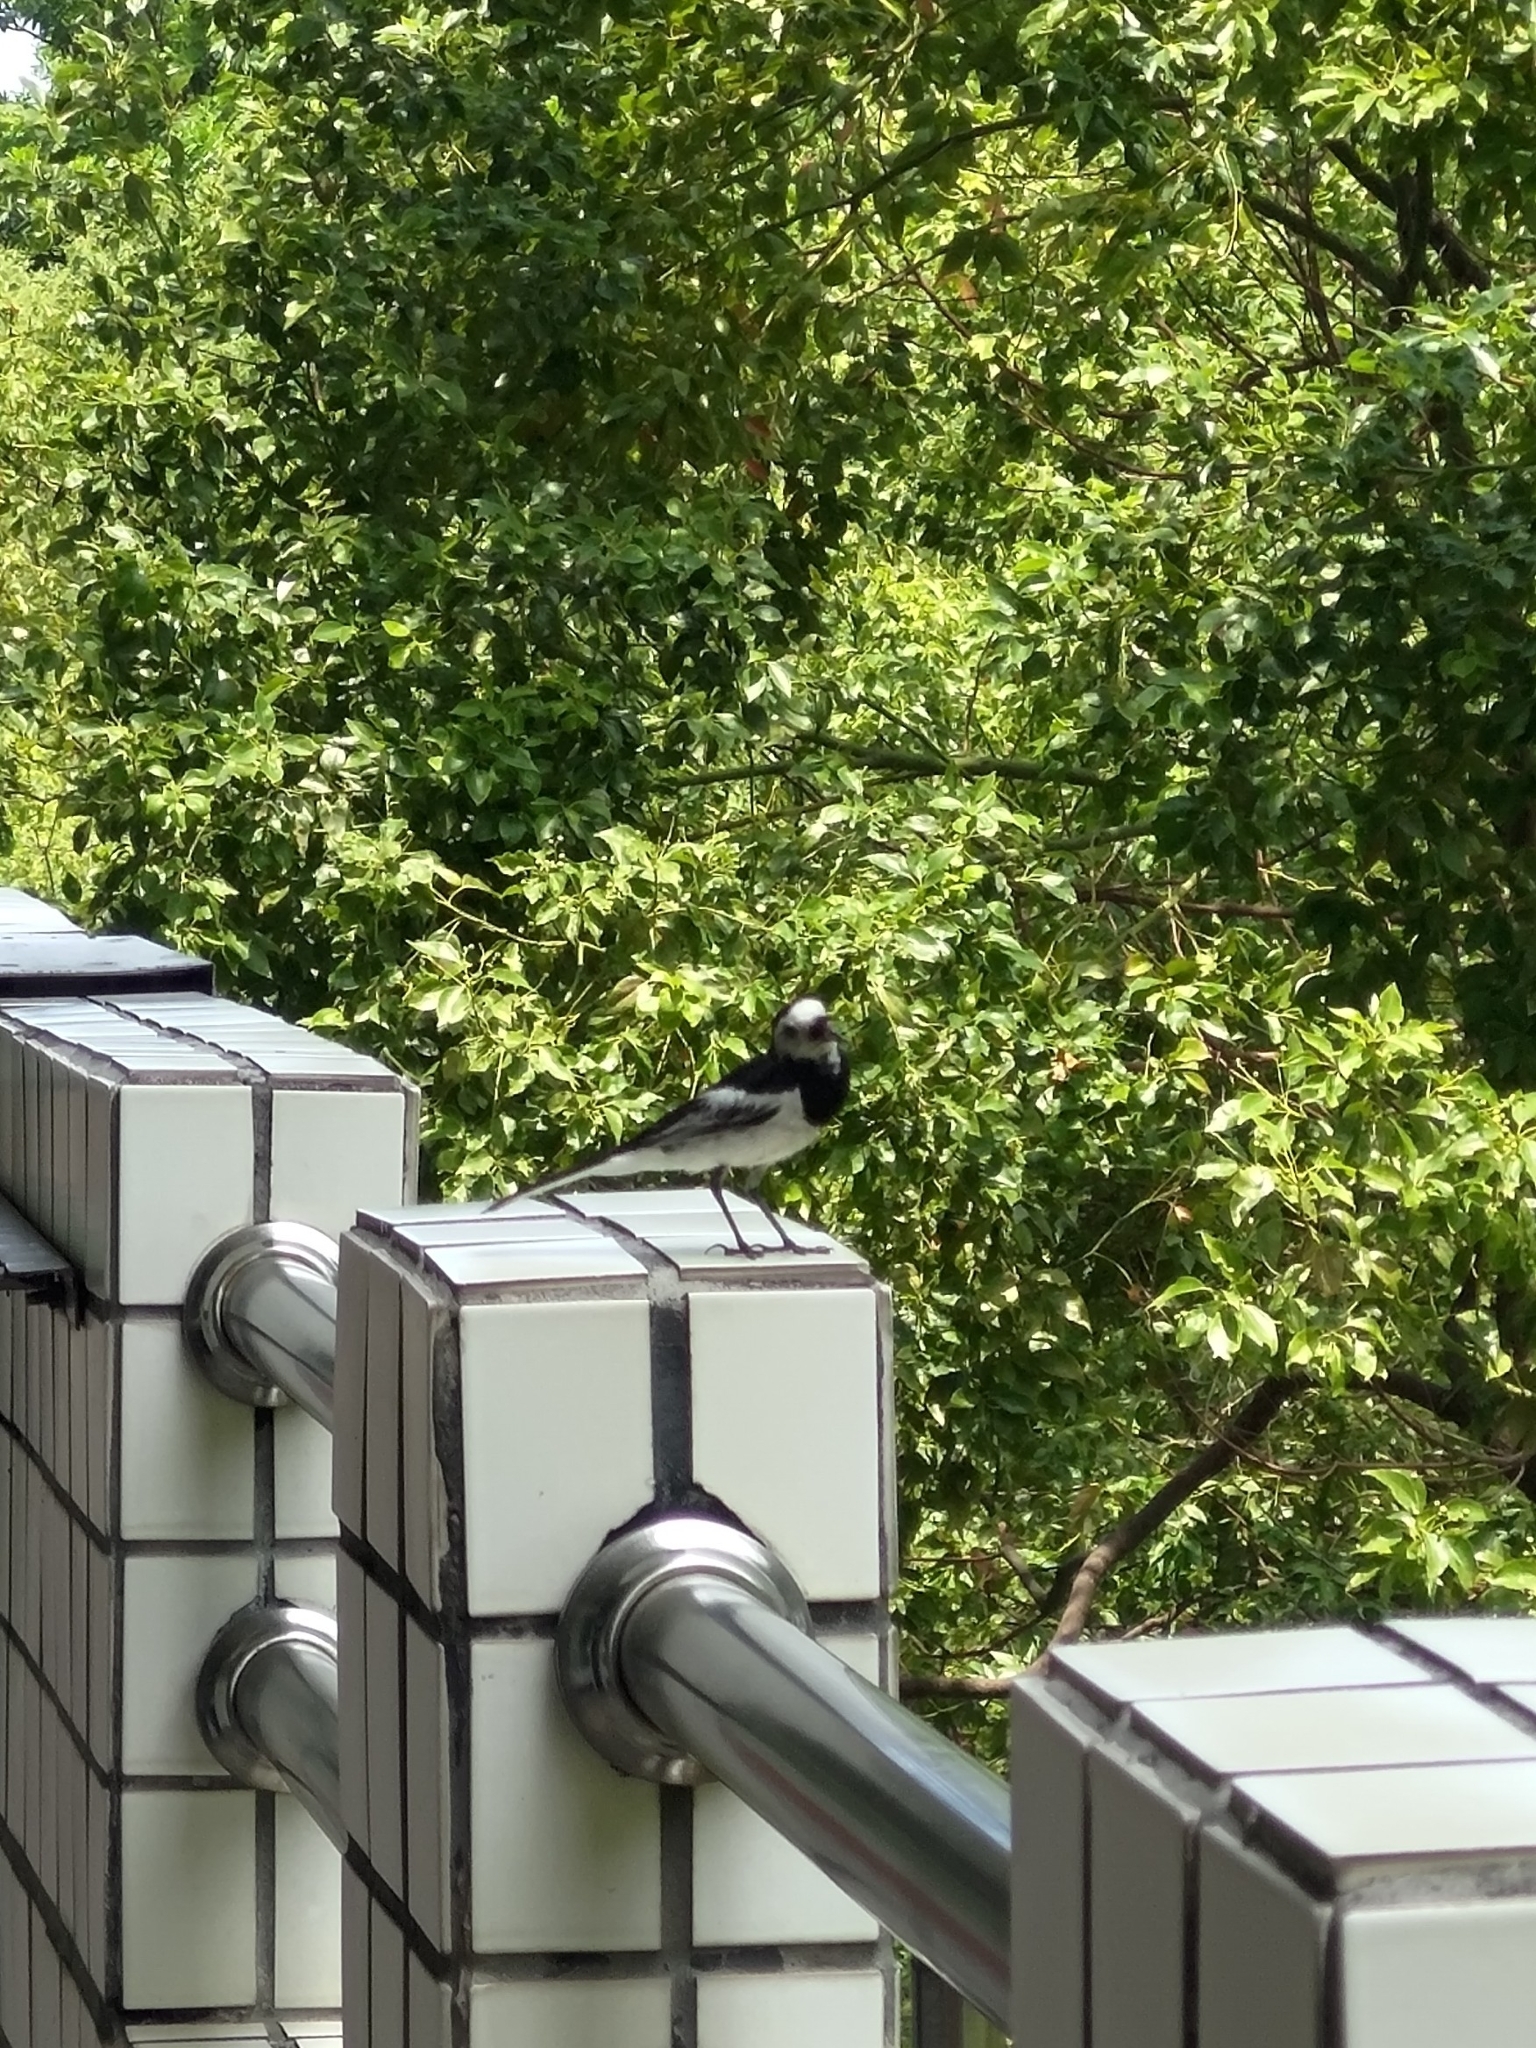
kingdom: Animalia
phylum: Chordata
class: Aves
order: Passeriformes
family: Motacillidae
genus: Motacilla
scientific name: Motacilla alba
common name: White wagtail
